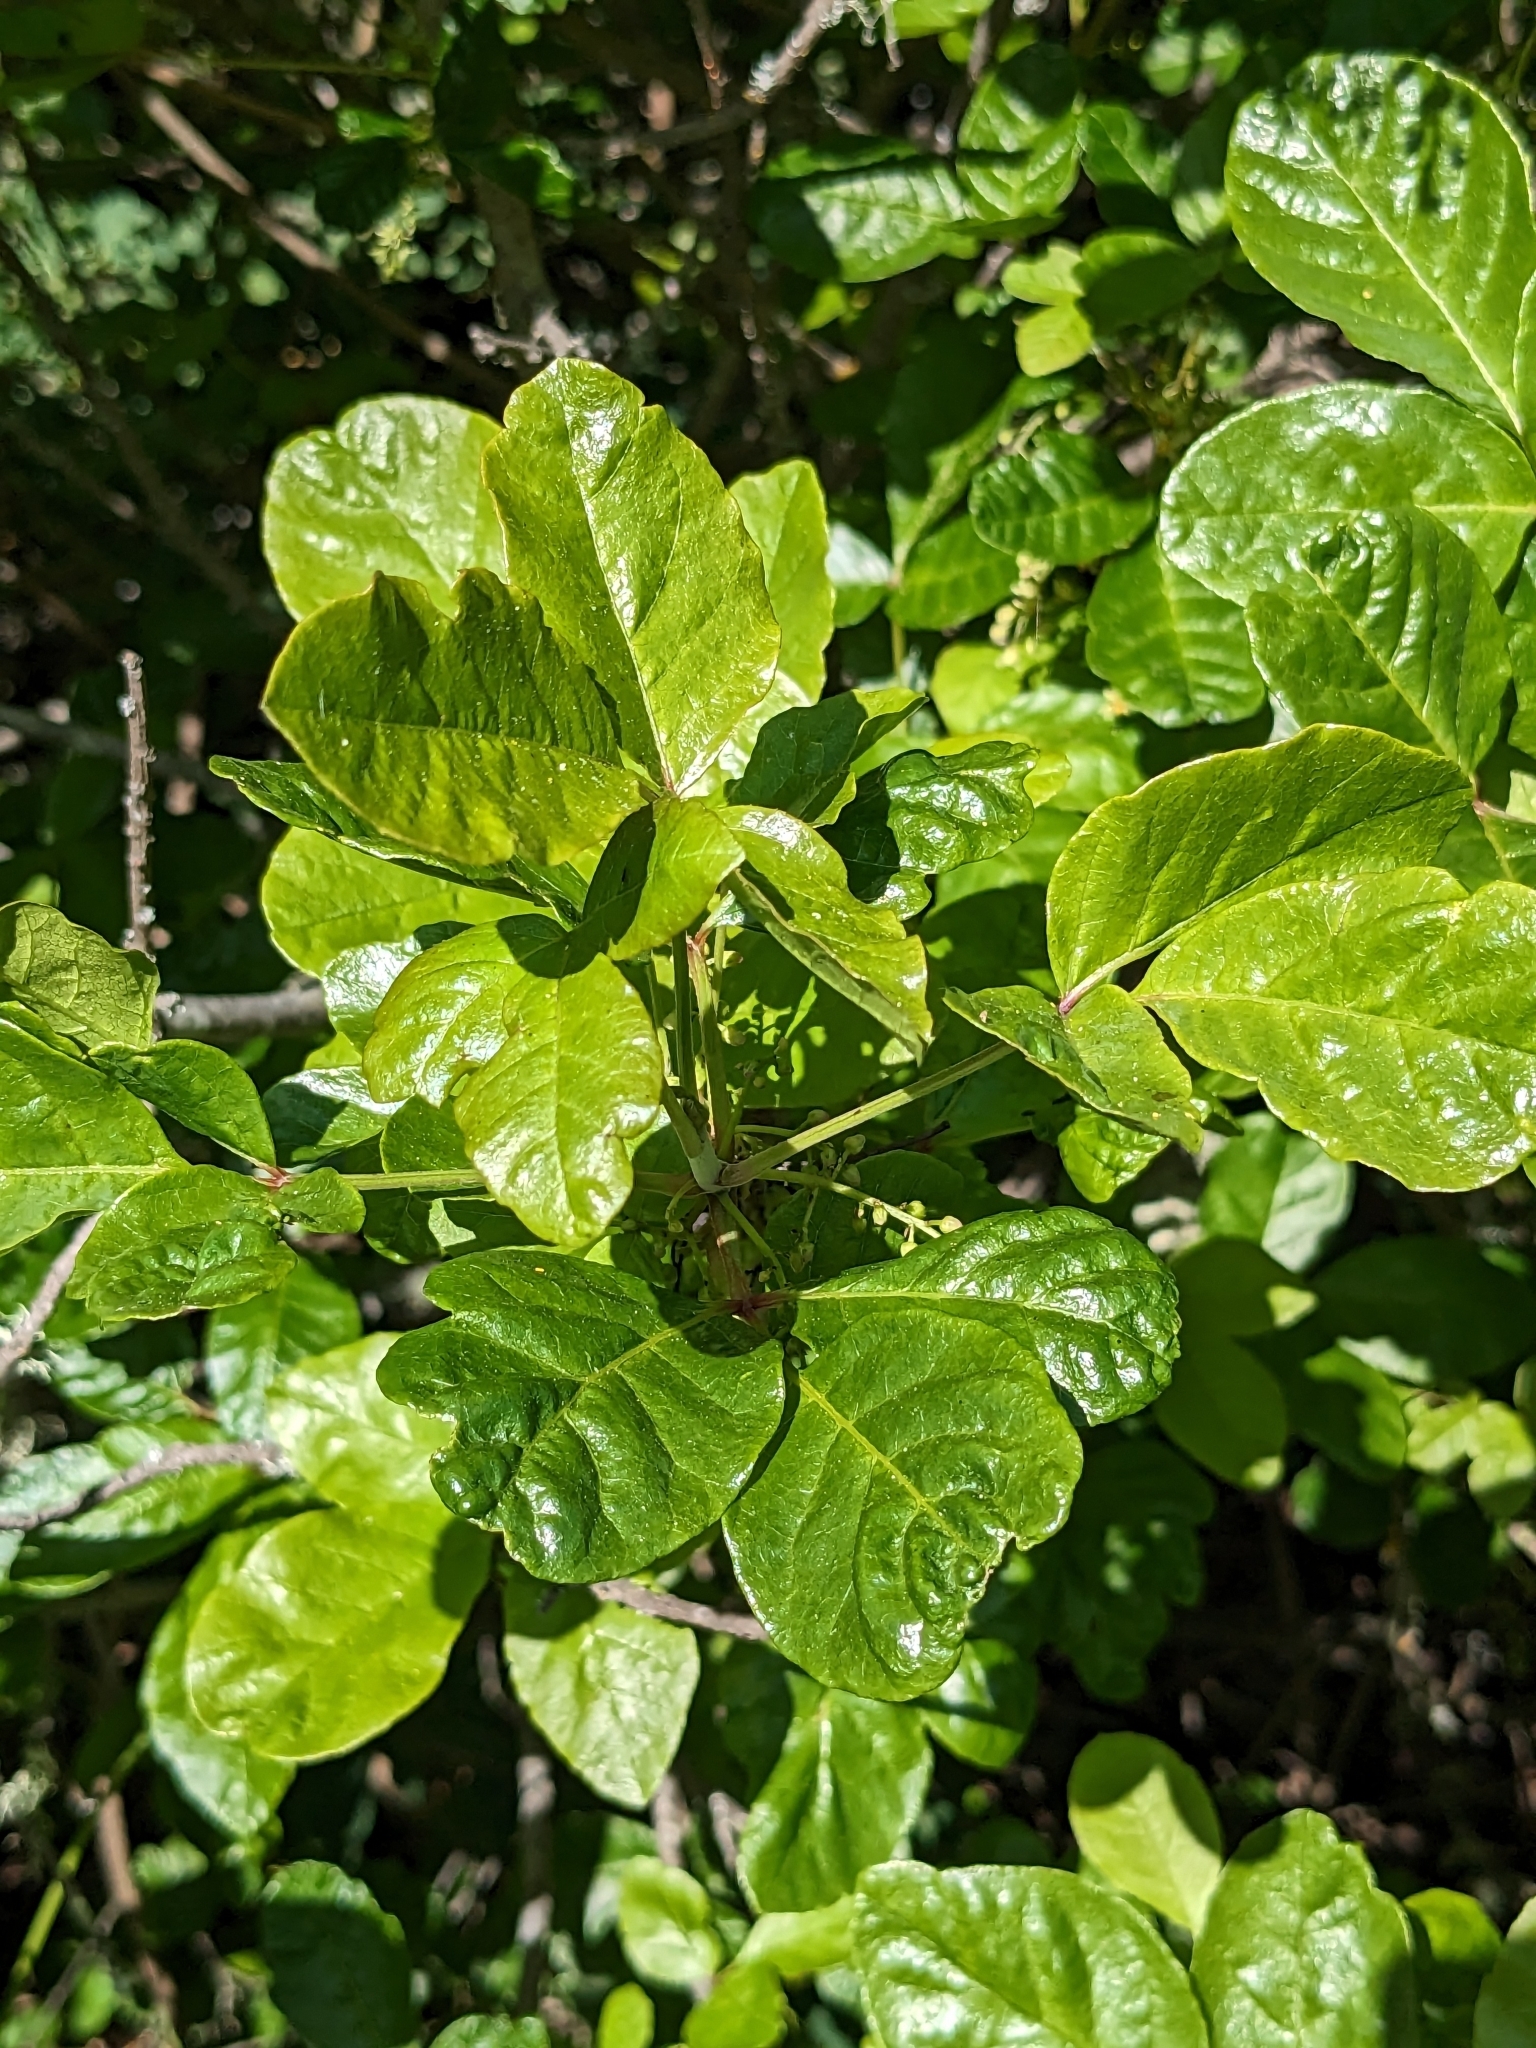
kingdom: Plantae
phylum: Tracheophyta
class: Magnoliopsida
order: Sapindales
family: Anacardiaceae
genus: Toxicodendron
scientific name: Toxicodendron diversilobum
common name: Pacific poison-oak
